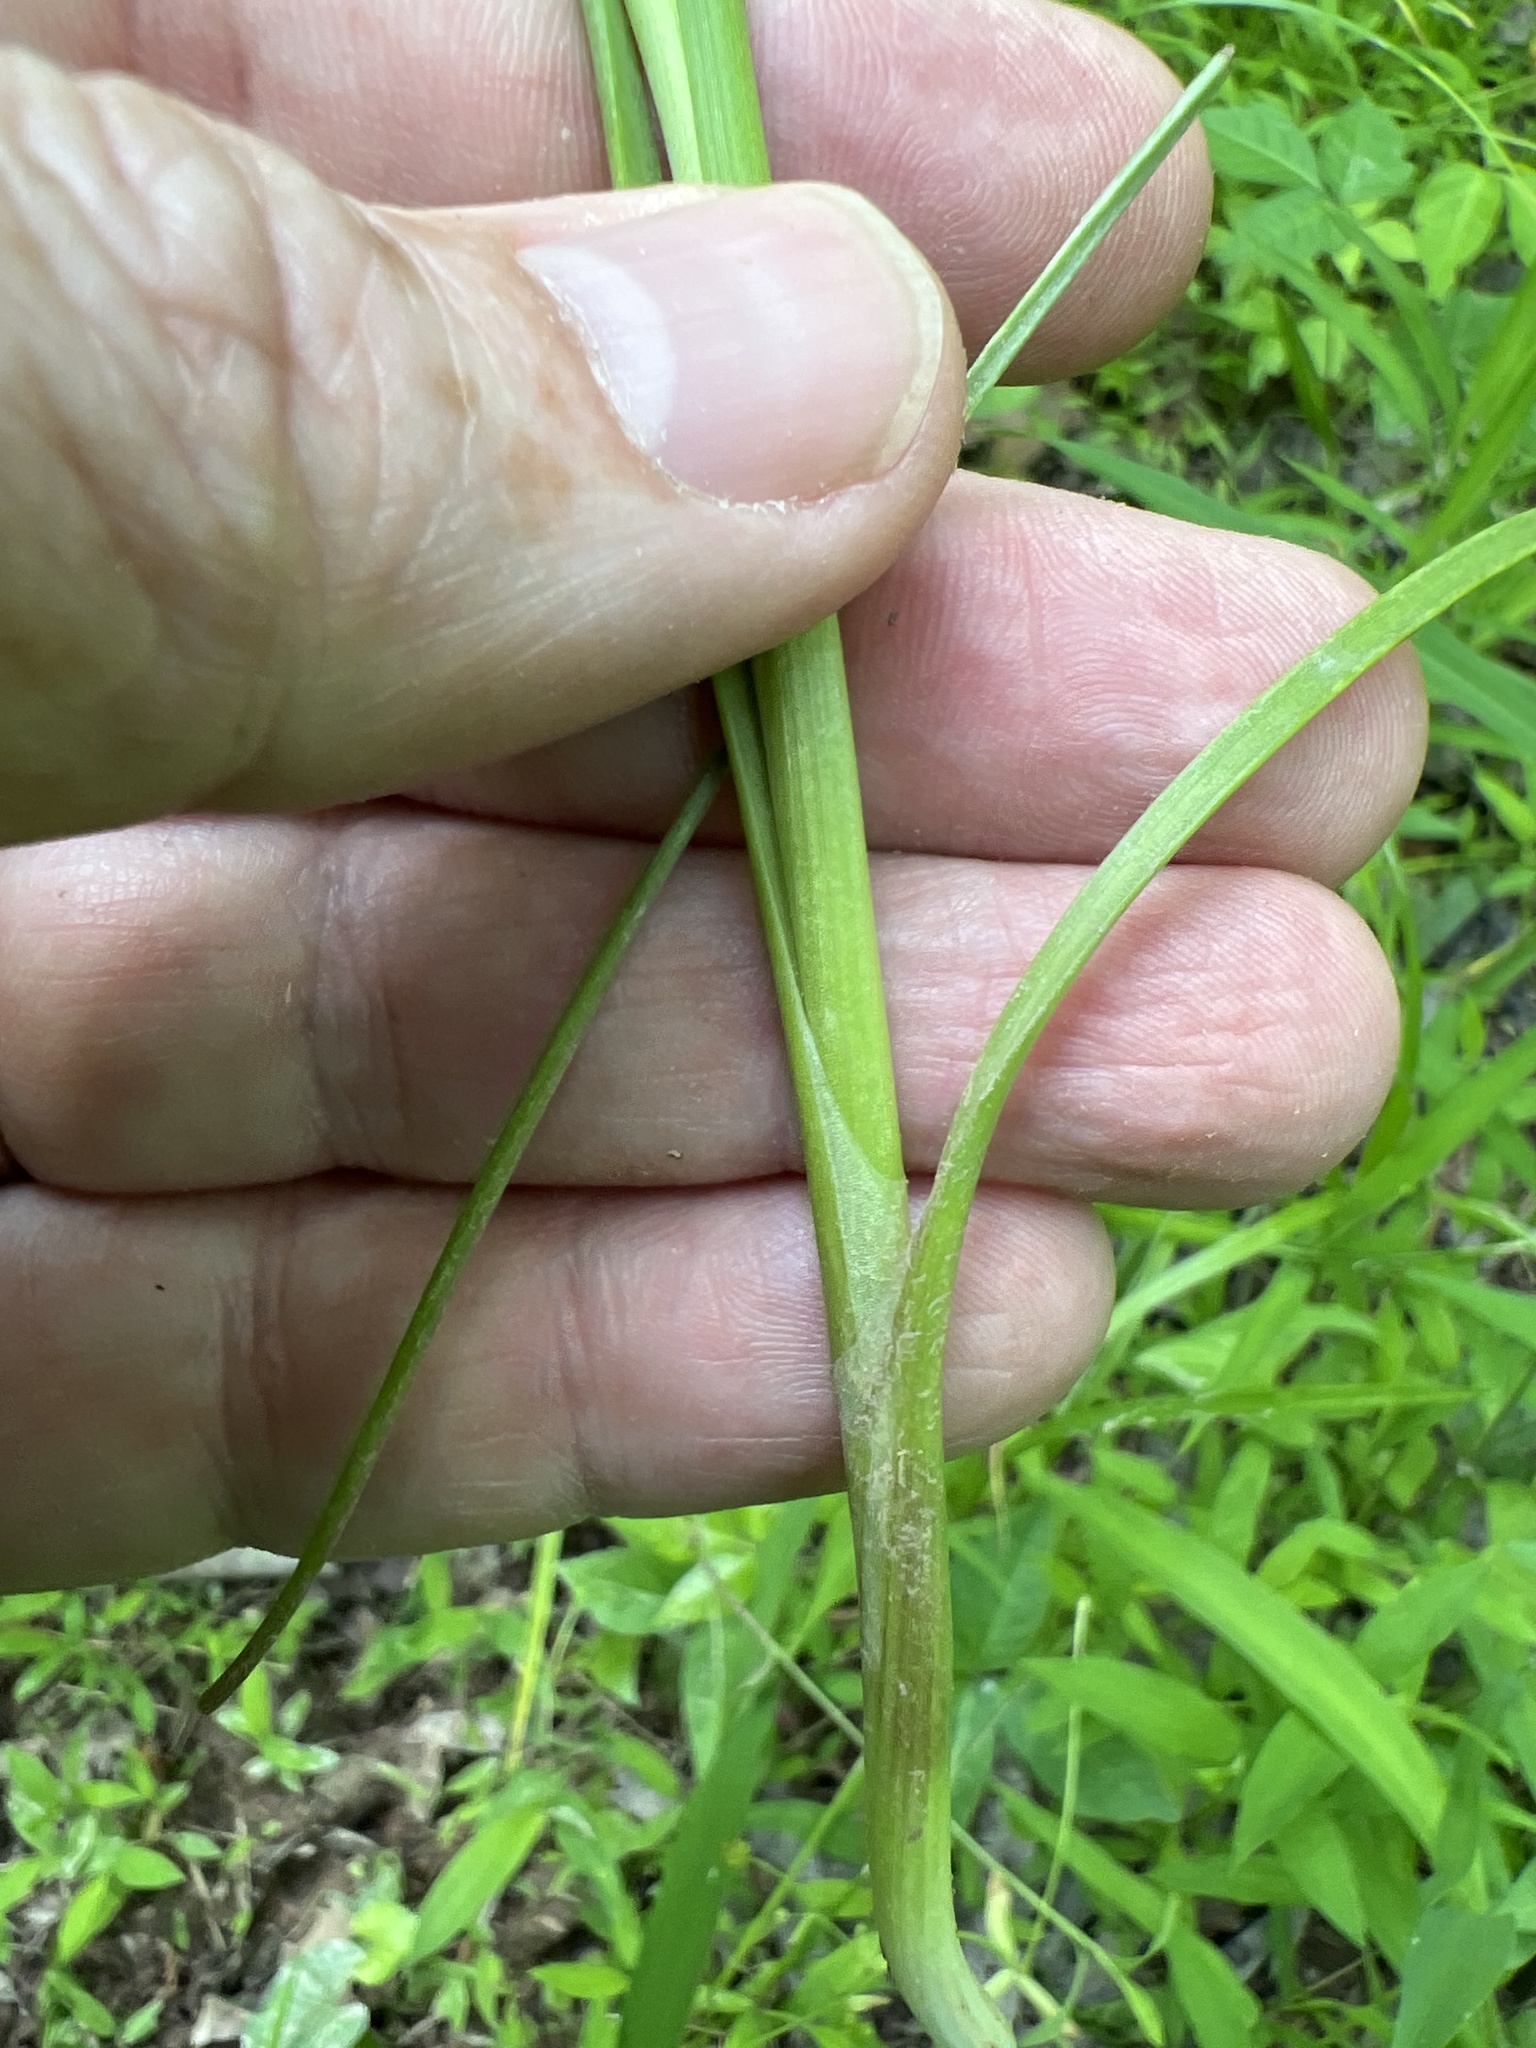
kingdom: Plantae
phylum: Tracheophyta
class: Liliopsida
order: Asparagales
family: Amaryllidaceae
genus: Allium
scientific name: Allium canadense
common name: Meadow garlic
